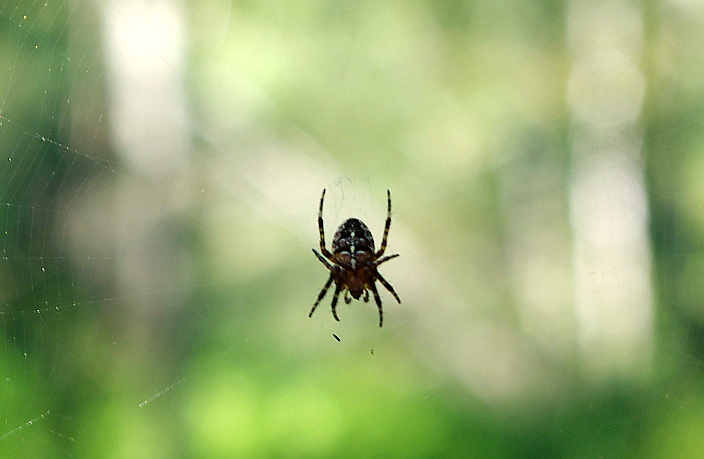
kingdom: Animalia
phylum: Arthropoda
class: Arachnida
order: Araneae
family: Araneidae
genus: Araneus
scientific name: Araneus diadematus
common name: Cross orbweaver
